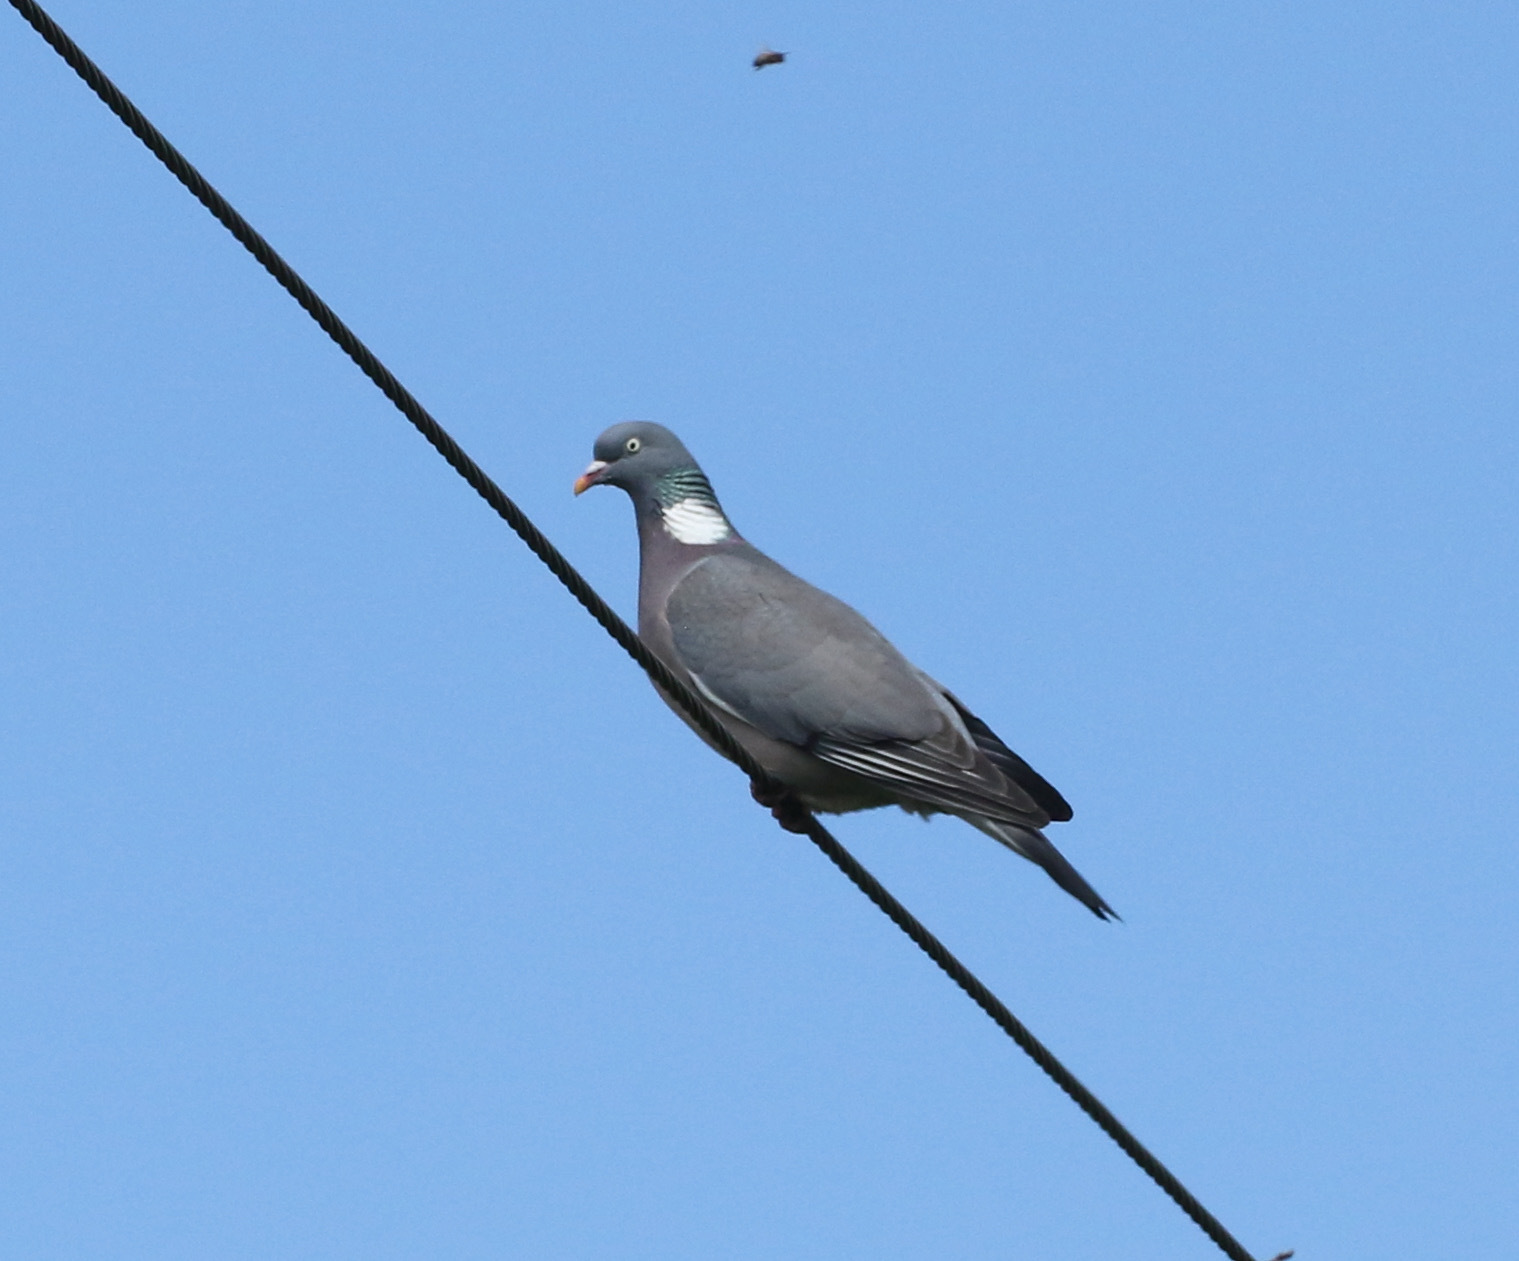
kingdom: Animalia
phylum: Chordata
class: Aves
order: Columbiformes
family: Columbidae
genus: Columba
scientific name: Columba palumbus
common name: Common wood pigeon
